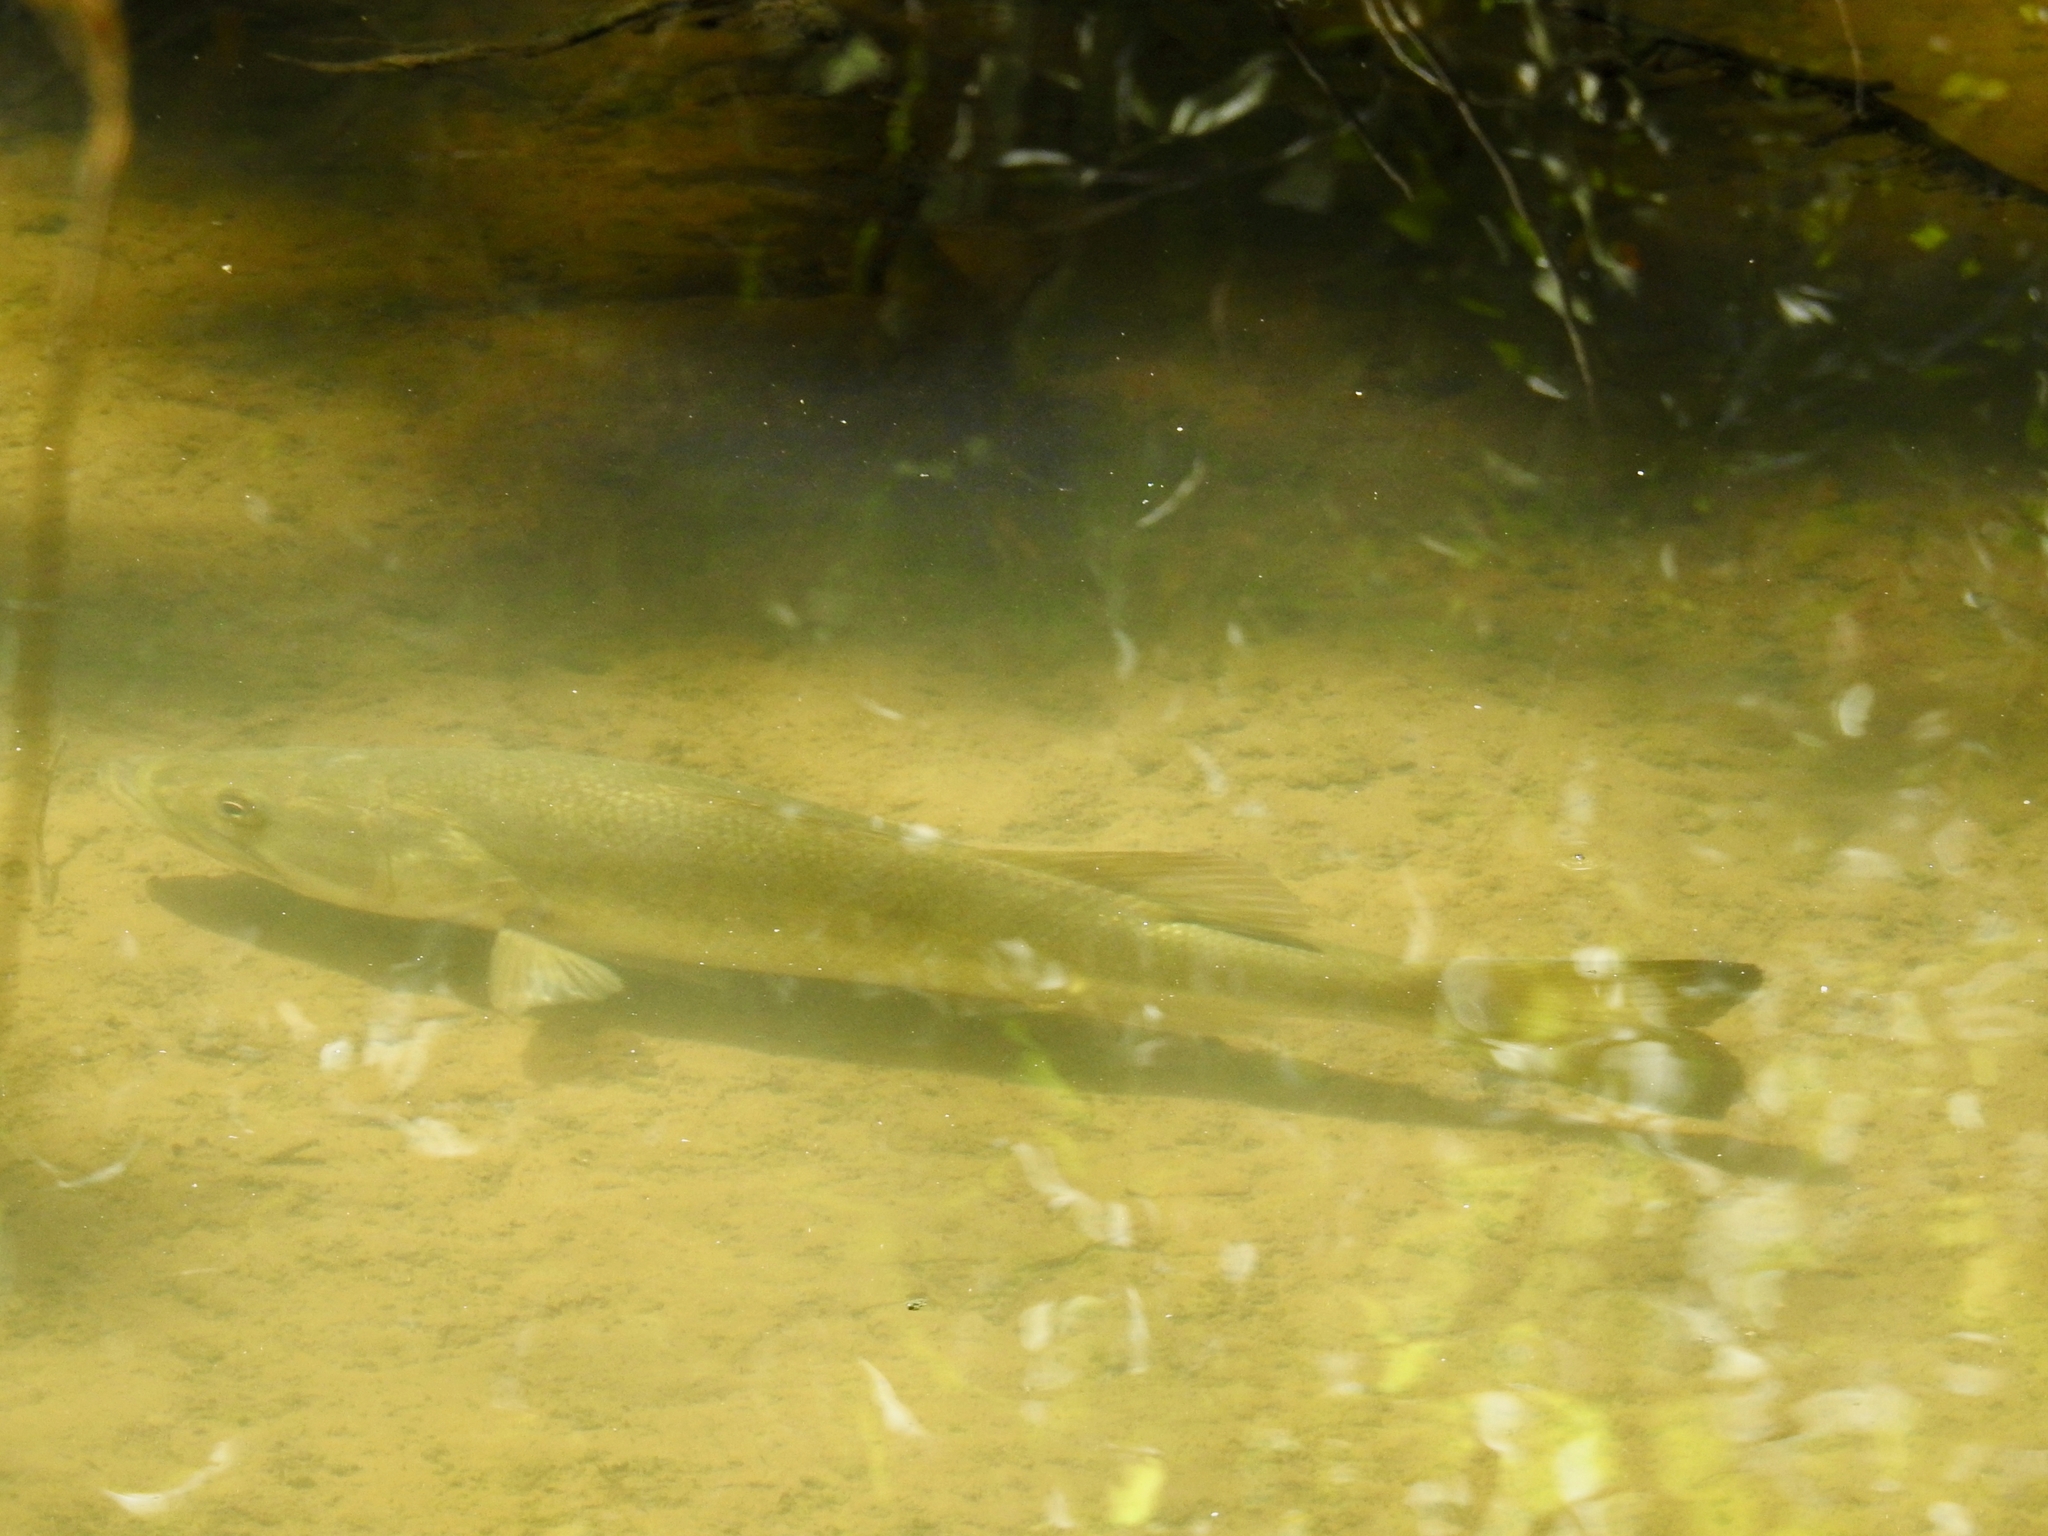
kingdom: Animalia
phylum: Chordata
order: Perciformes
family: Centrarchidae
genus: Micropterus
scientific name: Micropterus
